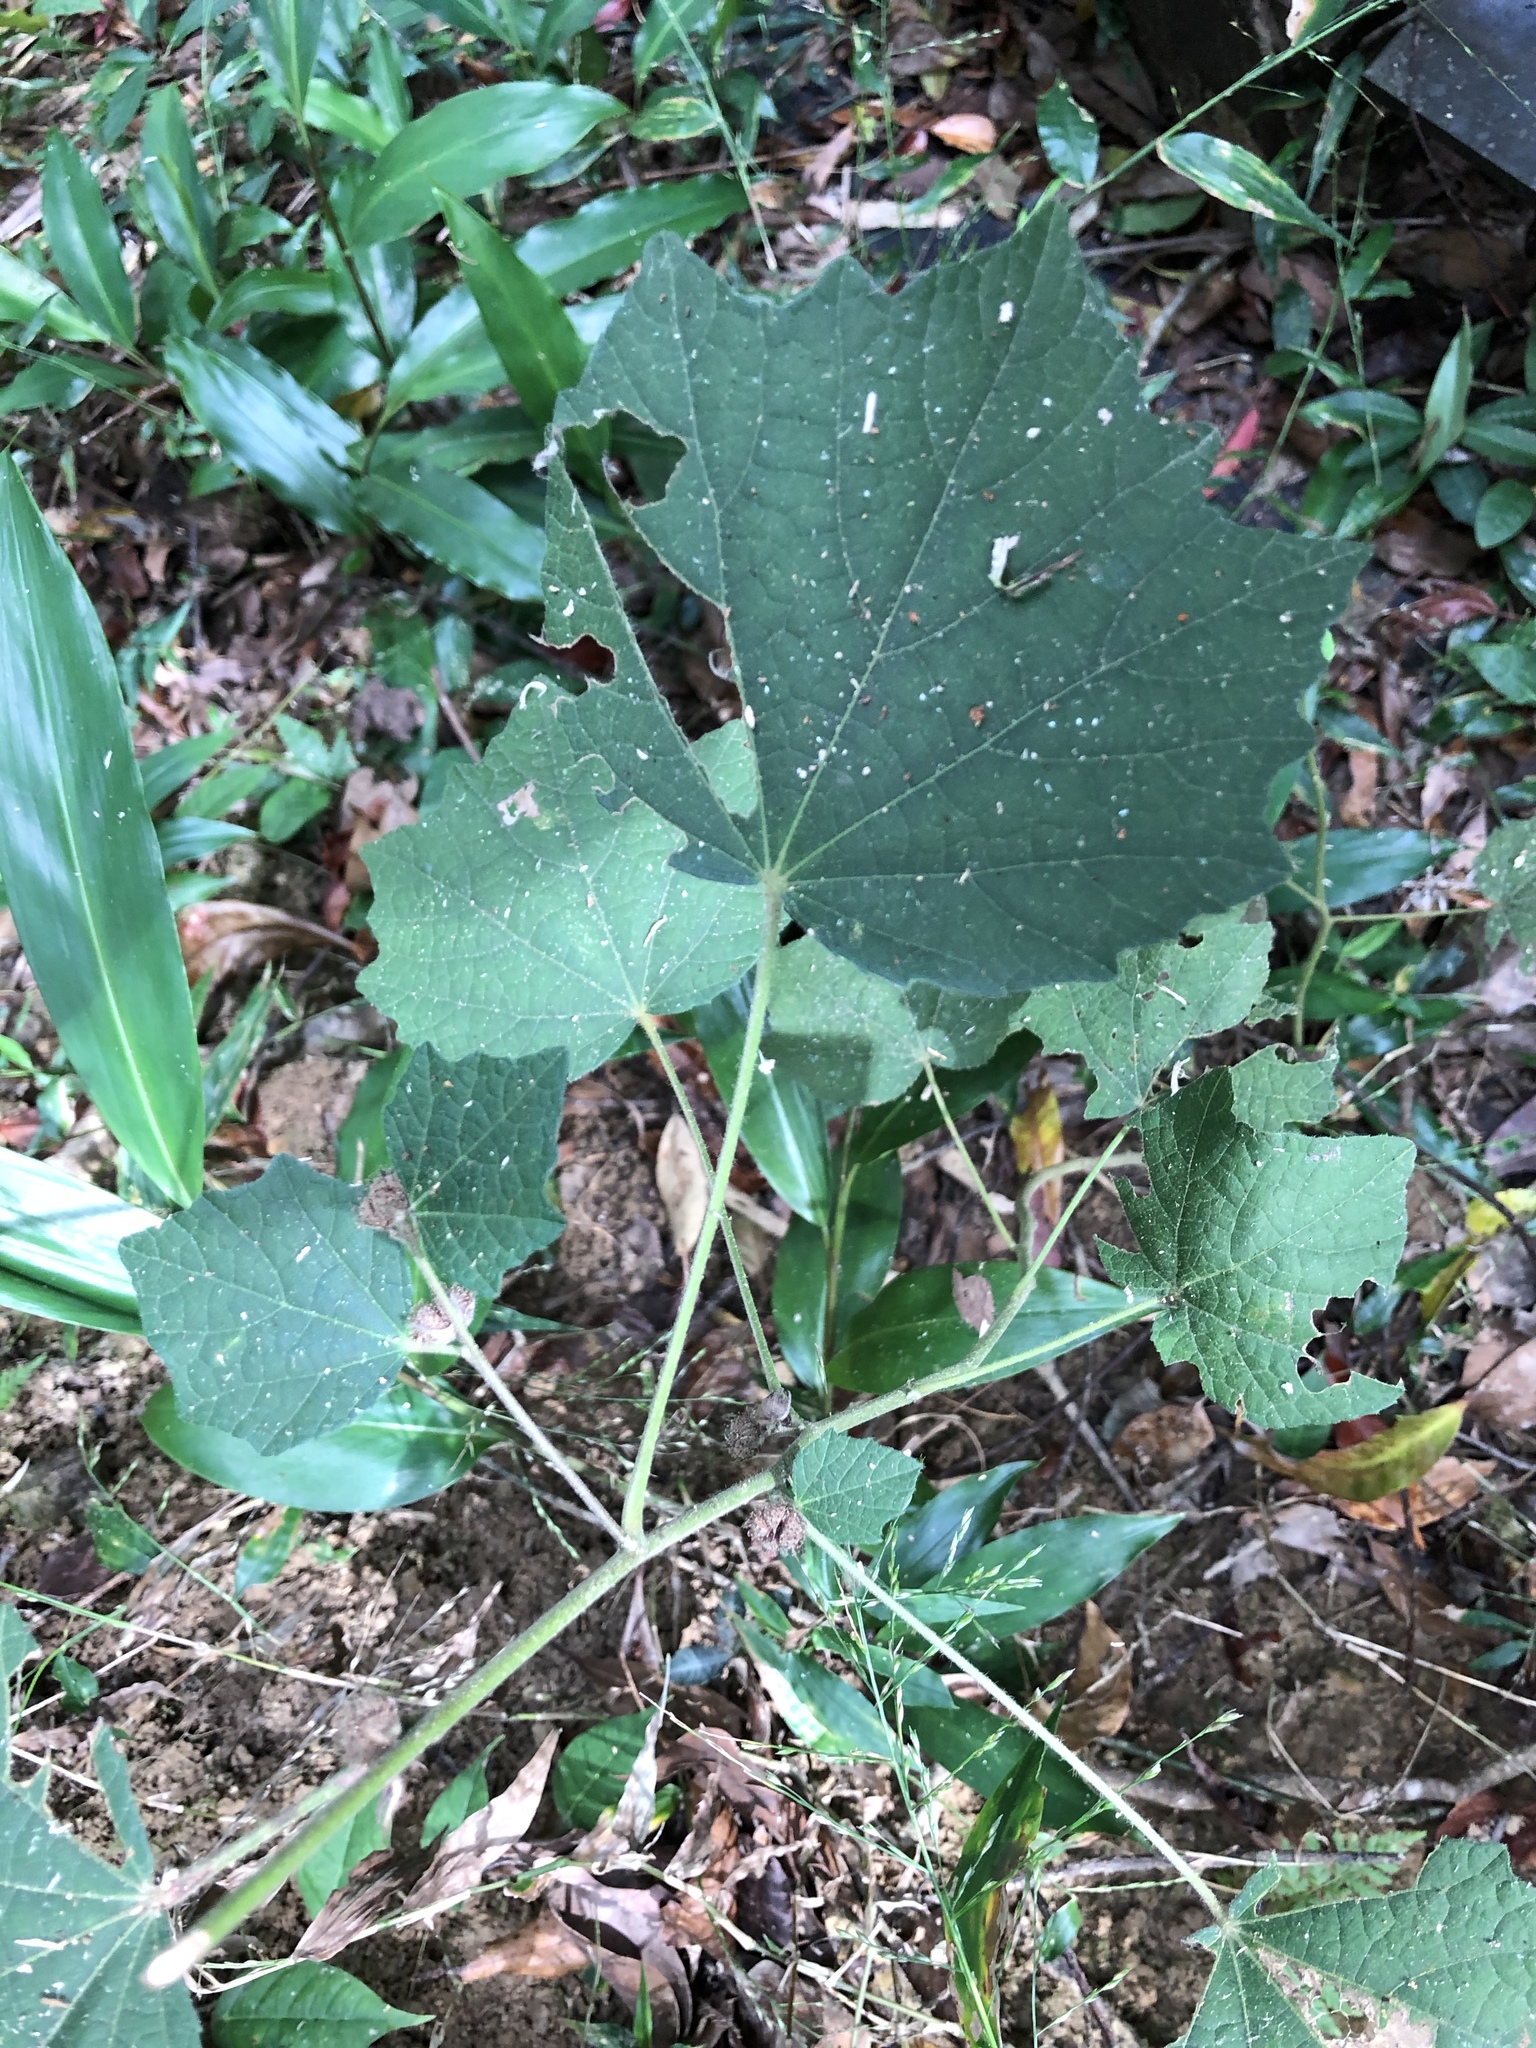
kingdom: Plantae
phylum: Tracheophyta
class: Magnoliopsida
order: Malvales
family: Malvaceae
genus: Urena
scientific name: Urena lobata
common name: Caesarweed
